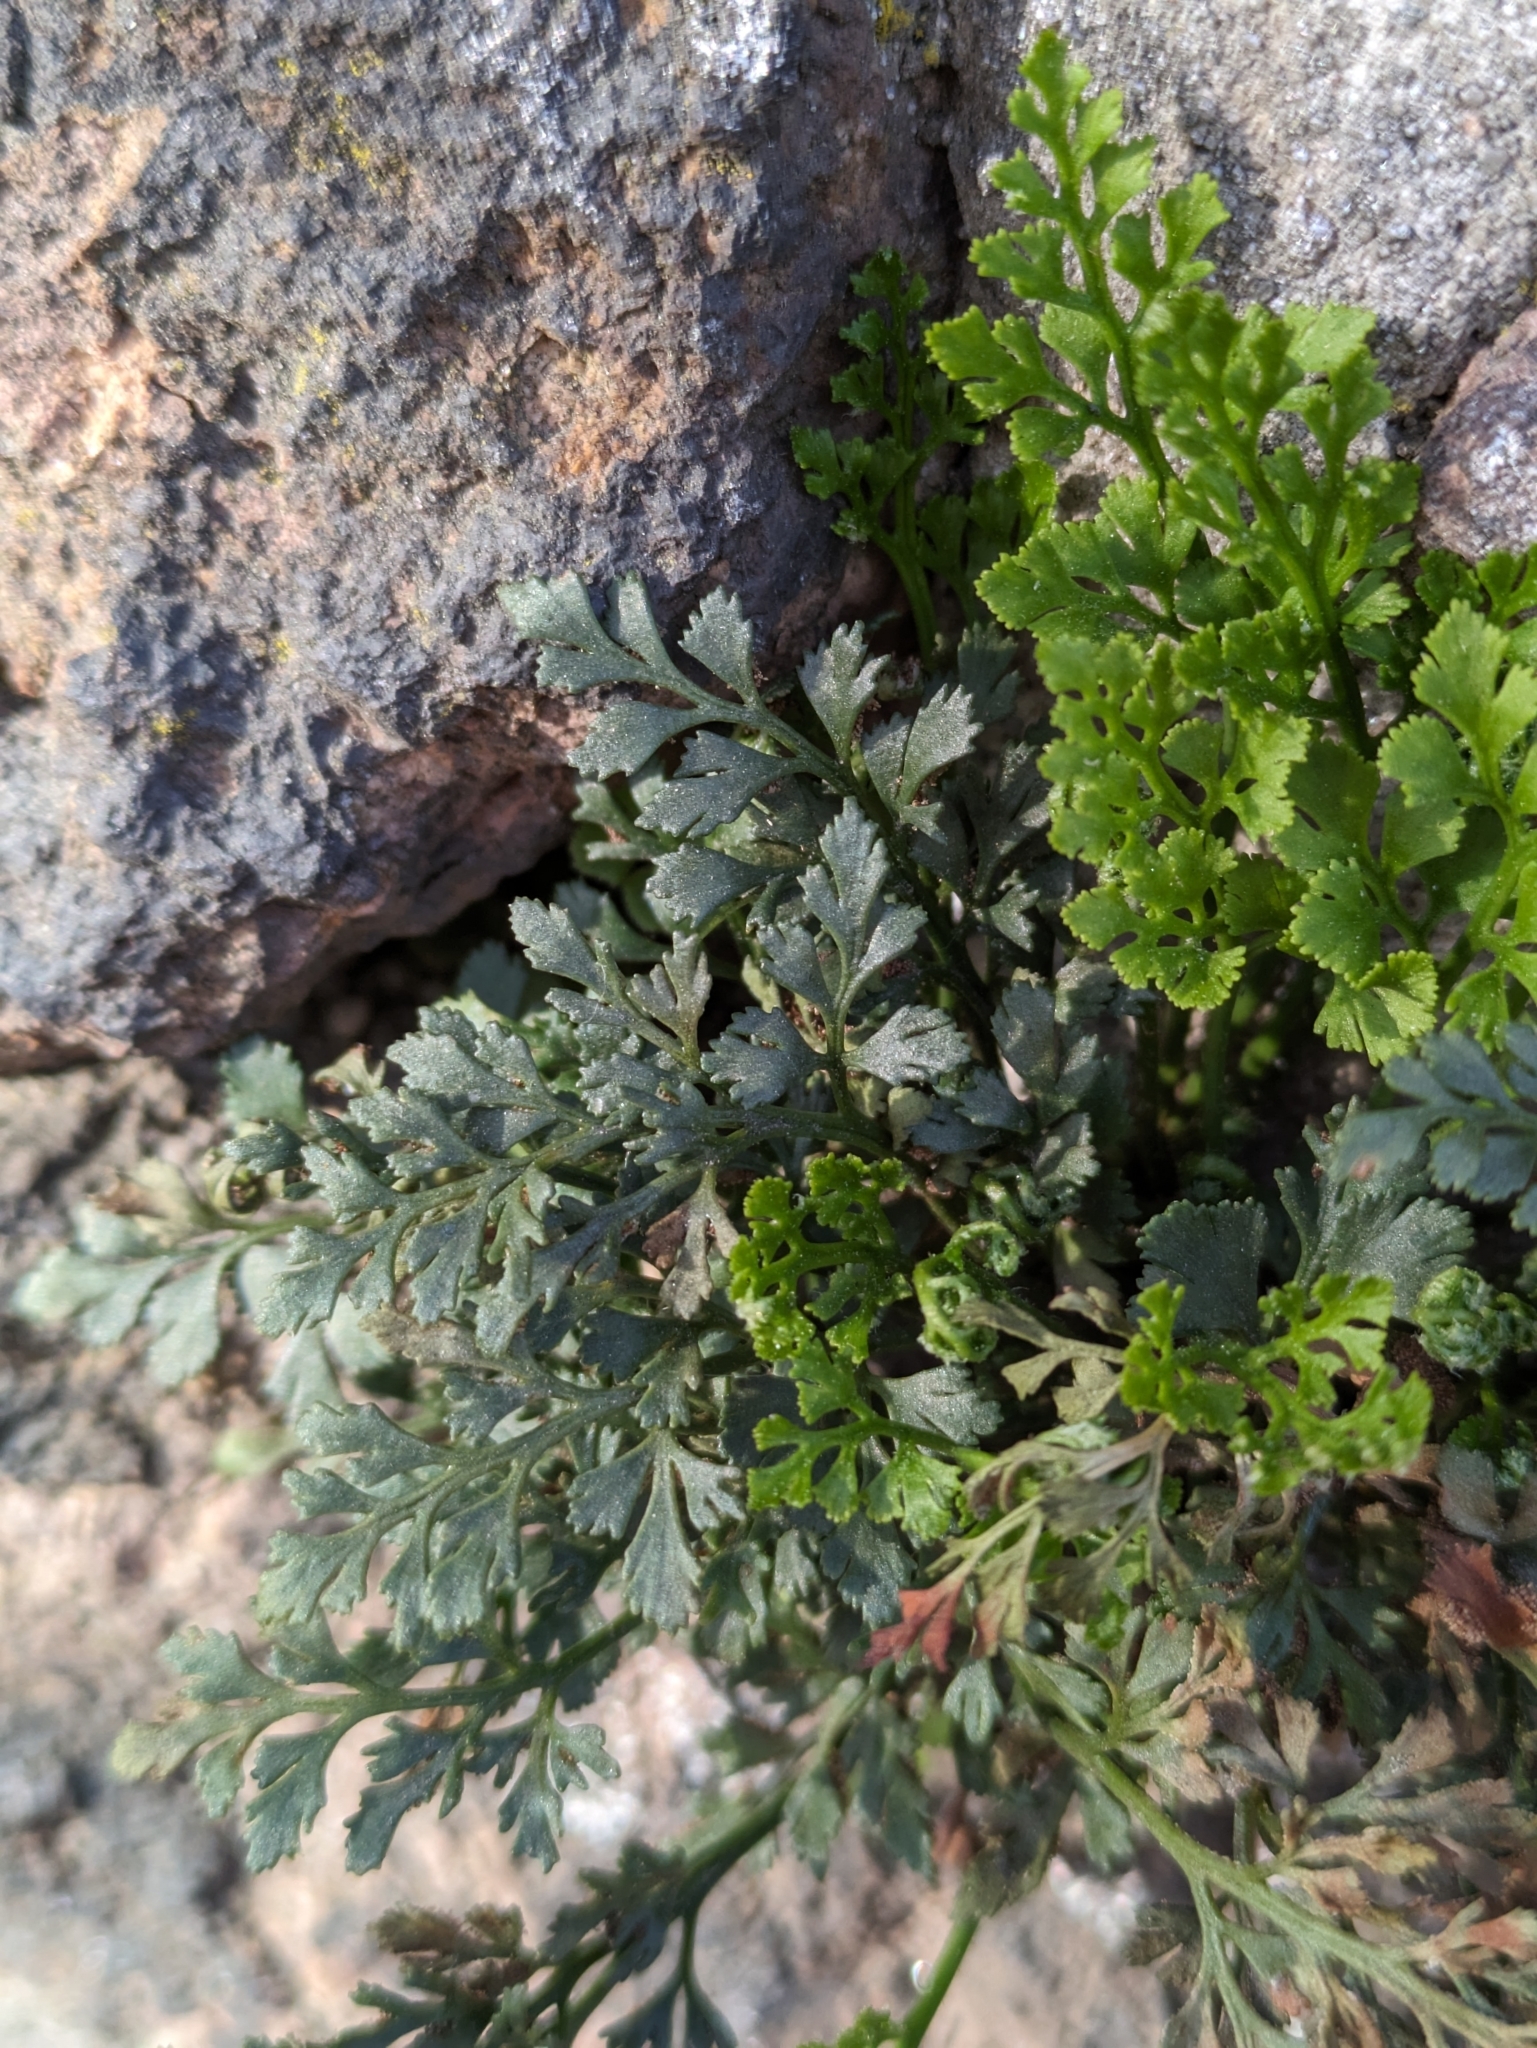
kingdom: Plantae
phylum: Tracheophyta
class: Polypodiopsida
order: Polypodiales
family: Aspleniaceae
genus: Asplenium
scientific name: Asplenium ruta-muraria
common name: Wall-rue
